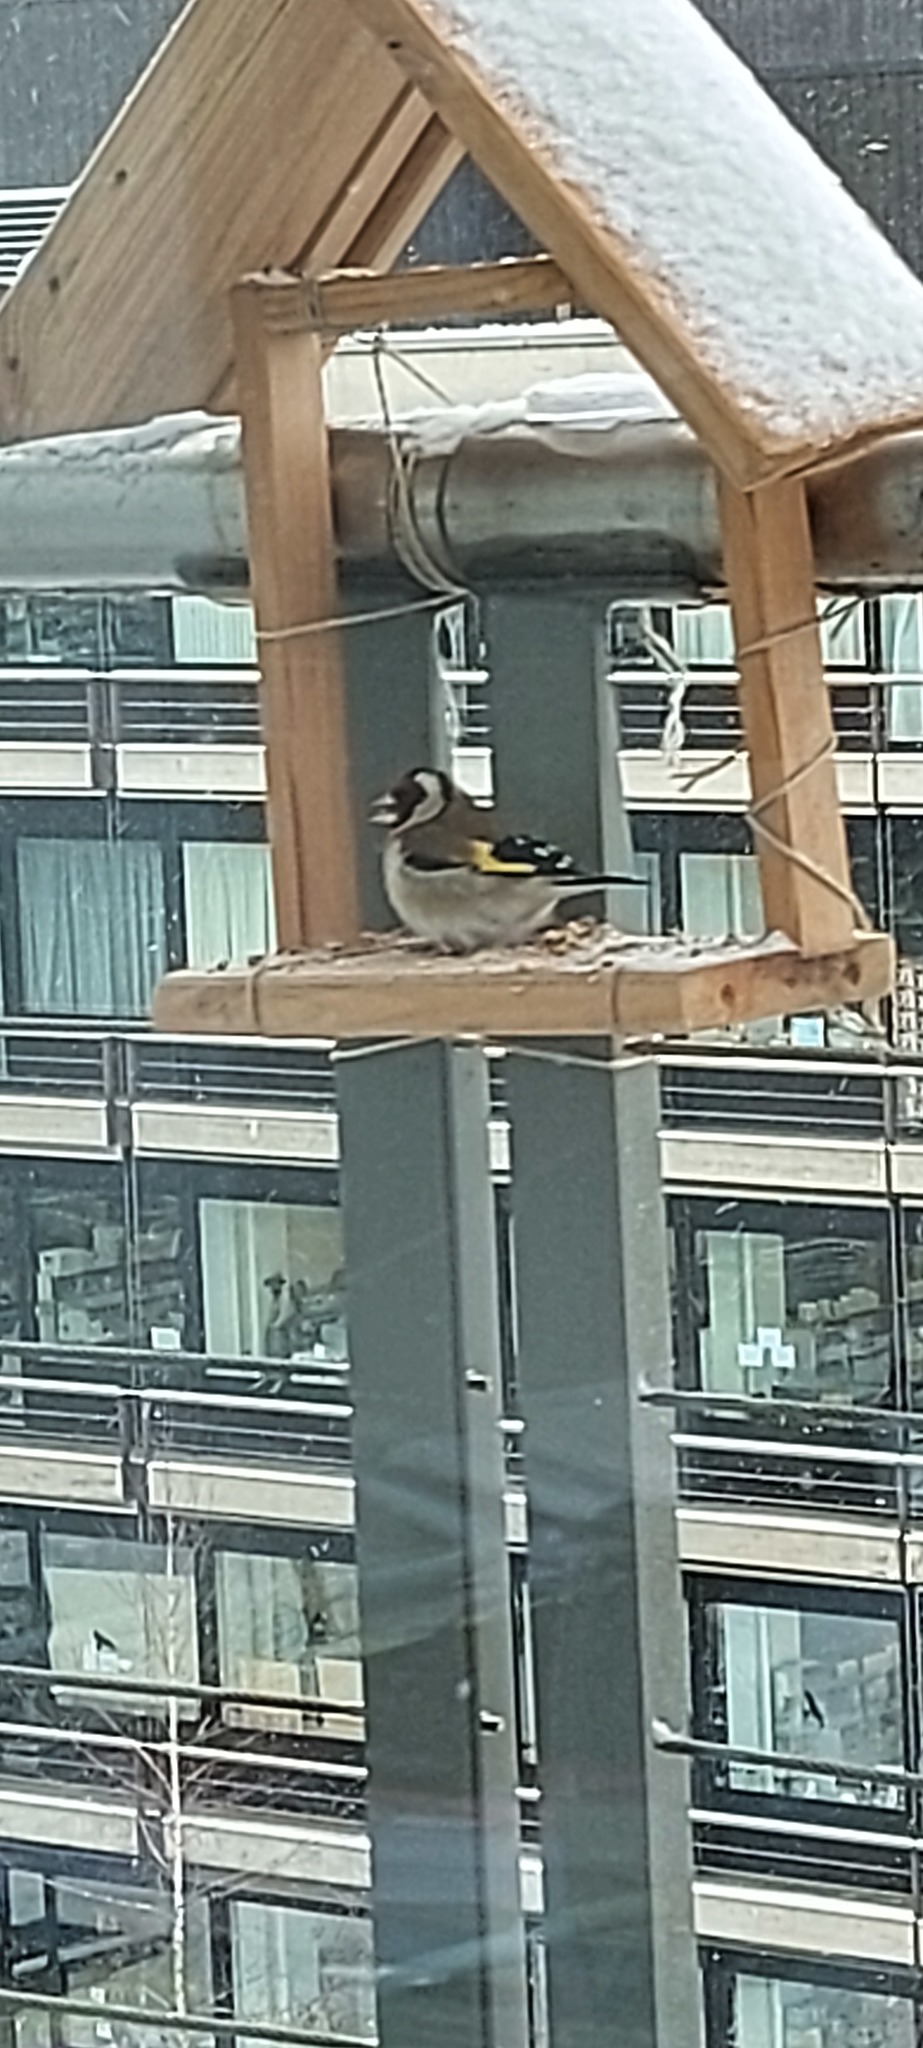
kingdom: Animalia
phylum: Chordata
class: Aves
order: Passeriformes
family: Fringillidae
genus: Carduelis
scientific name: Carduelis carduelis
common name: European goldfinch
